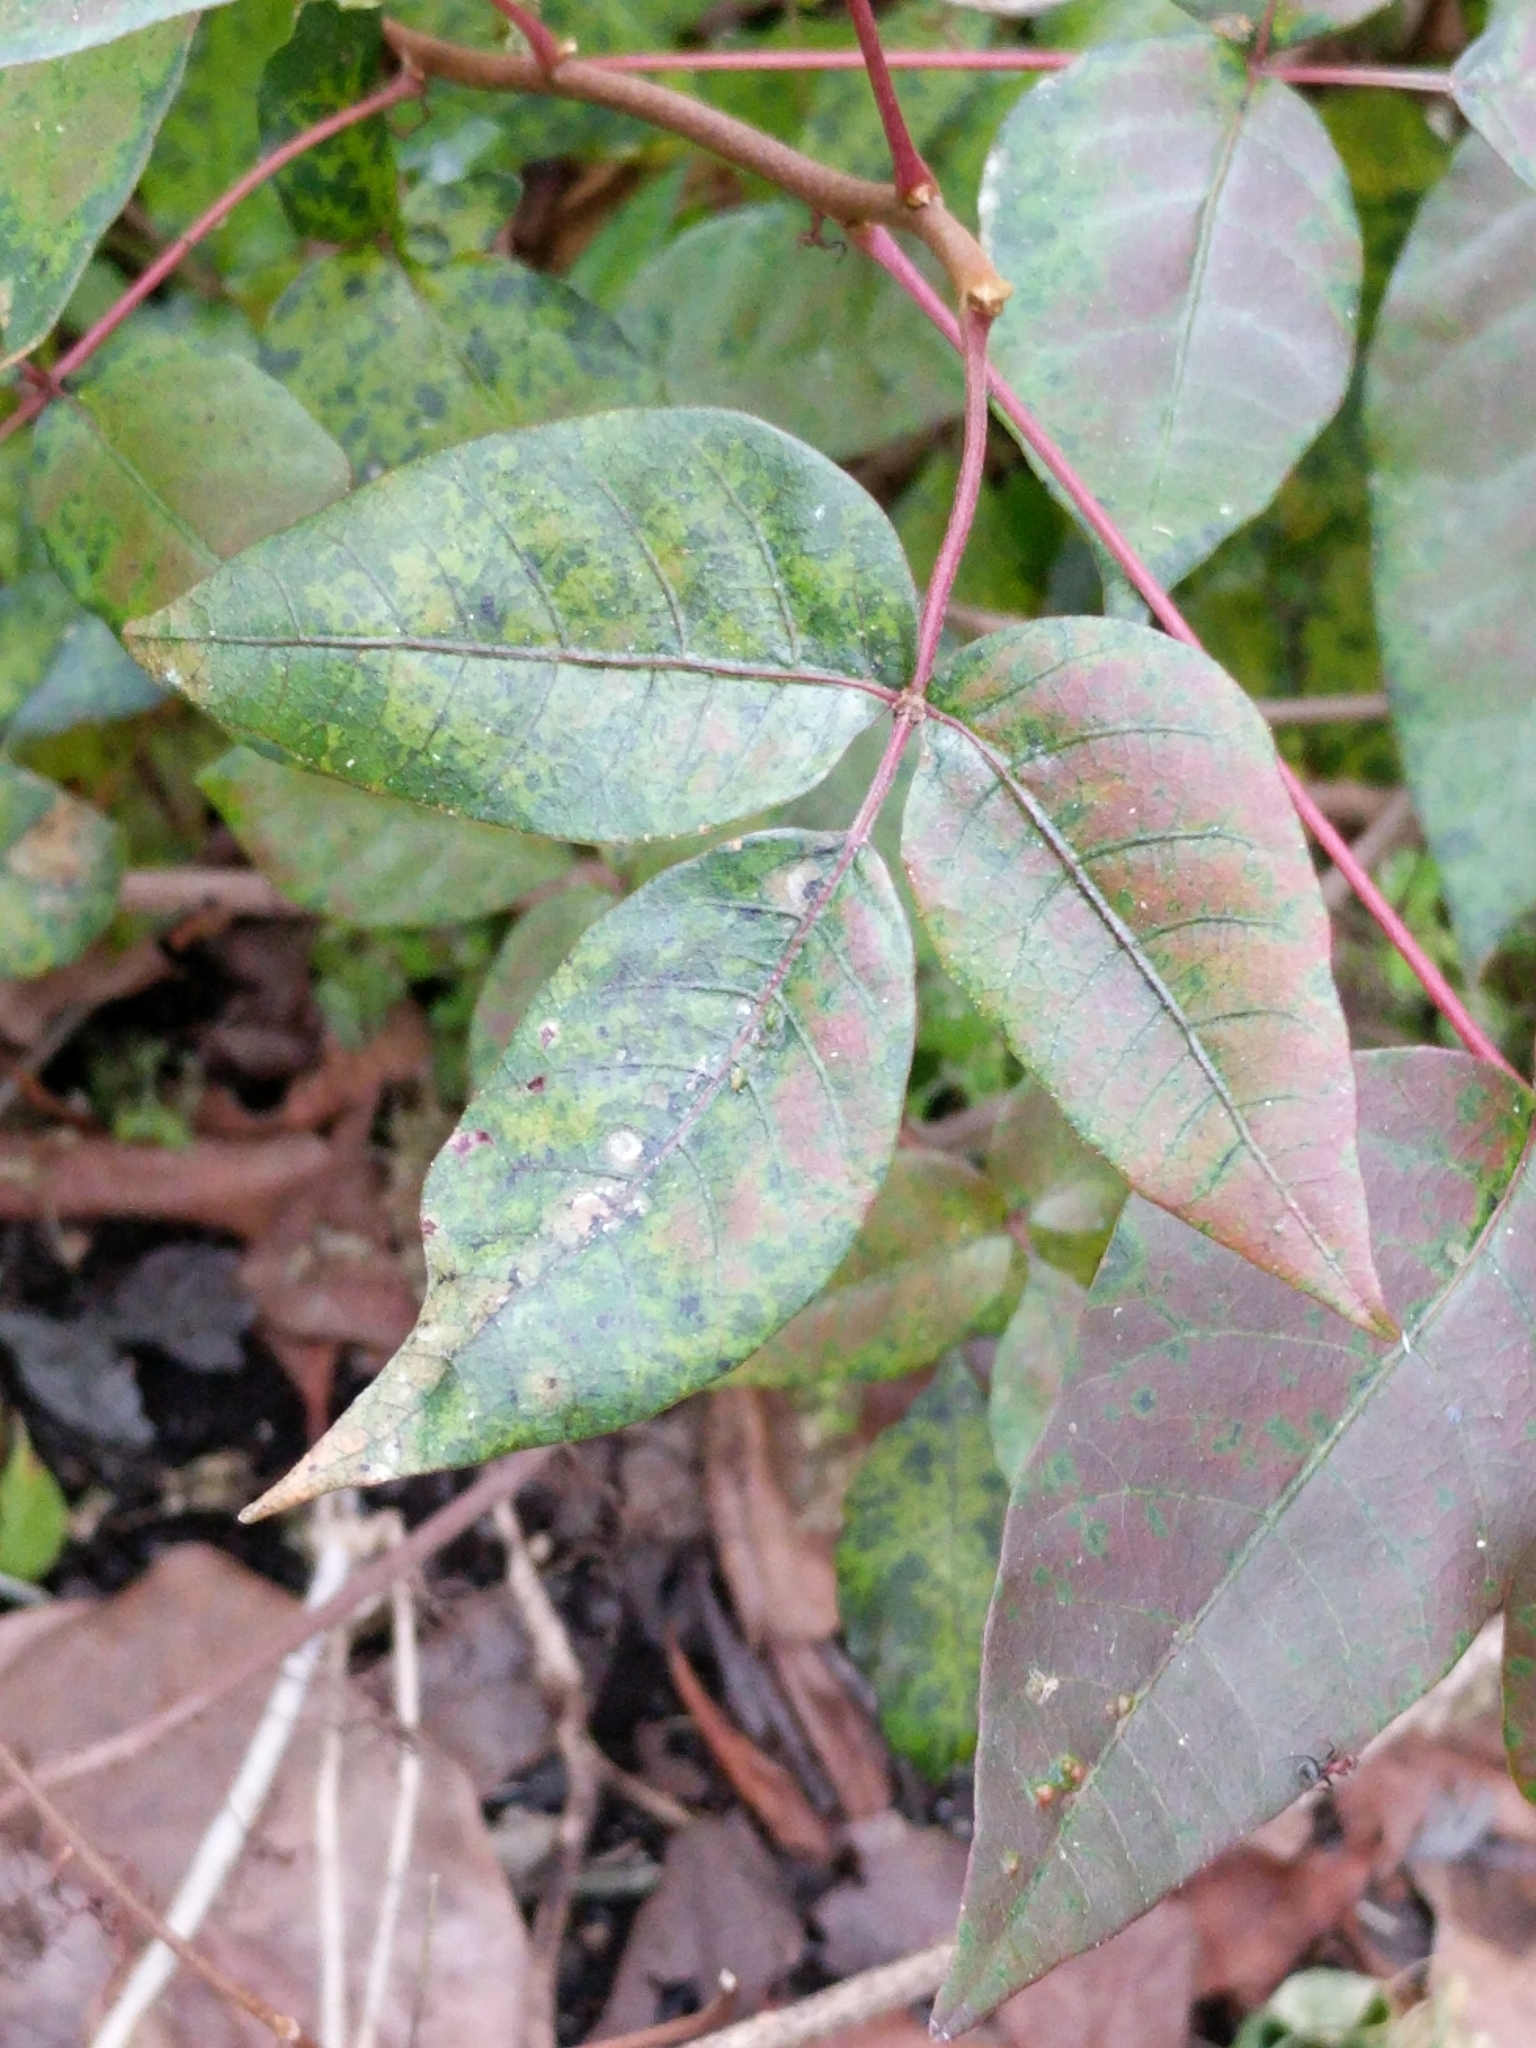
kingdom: Plantae
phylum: Tracheophyta
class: Magnoliopsida
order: Sapindales
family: Anacardiaceae
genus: Toxicodendron
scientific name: Toxicodendron radicans
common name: Poison ivy
